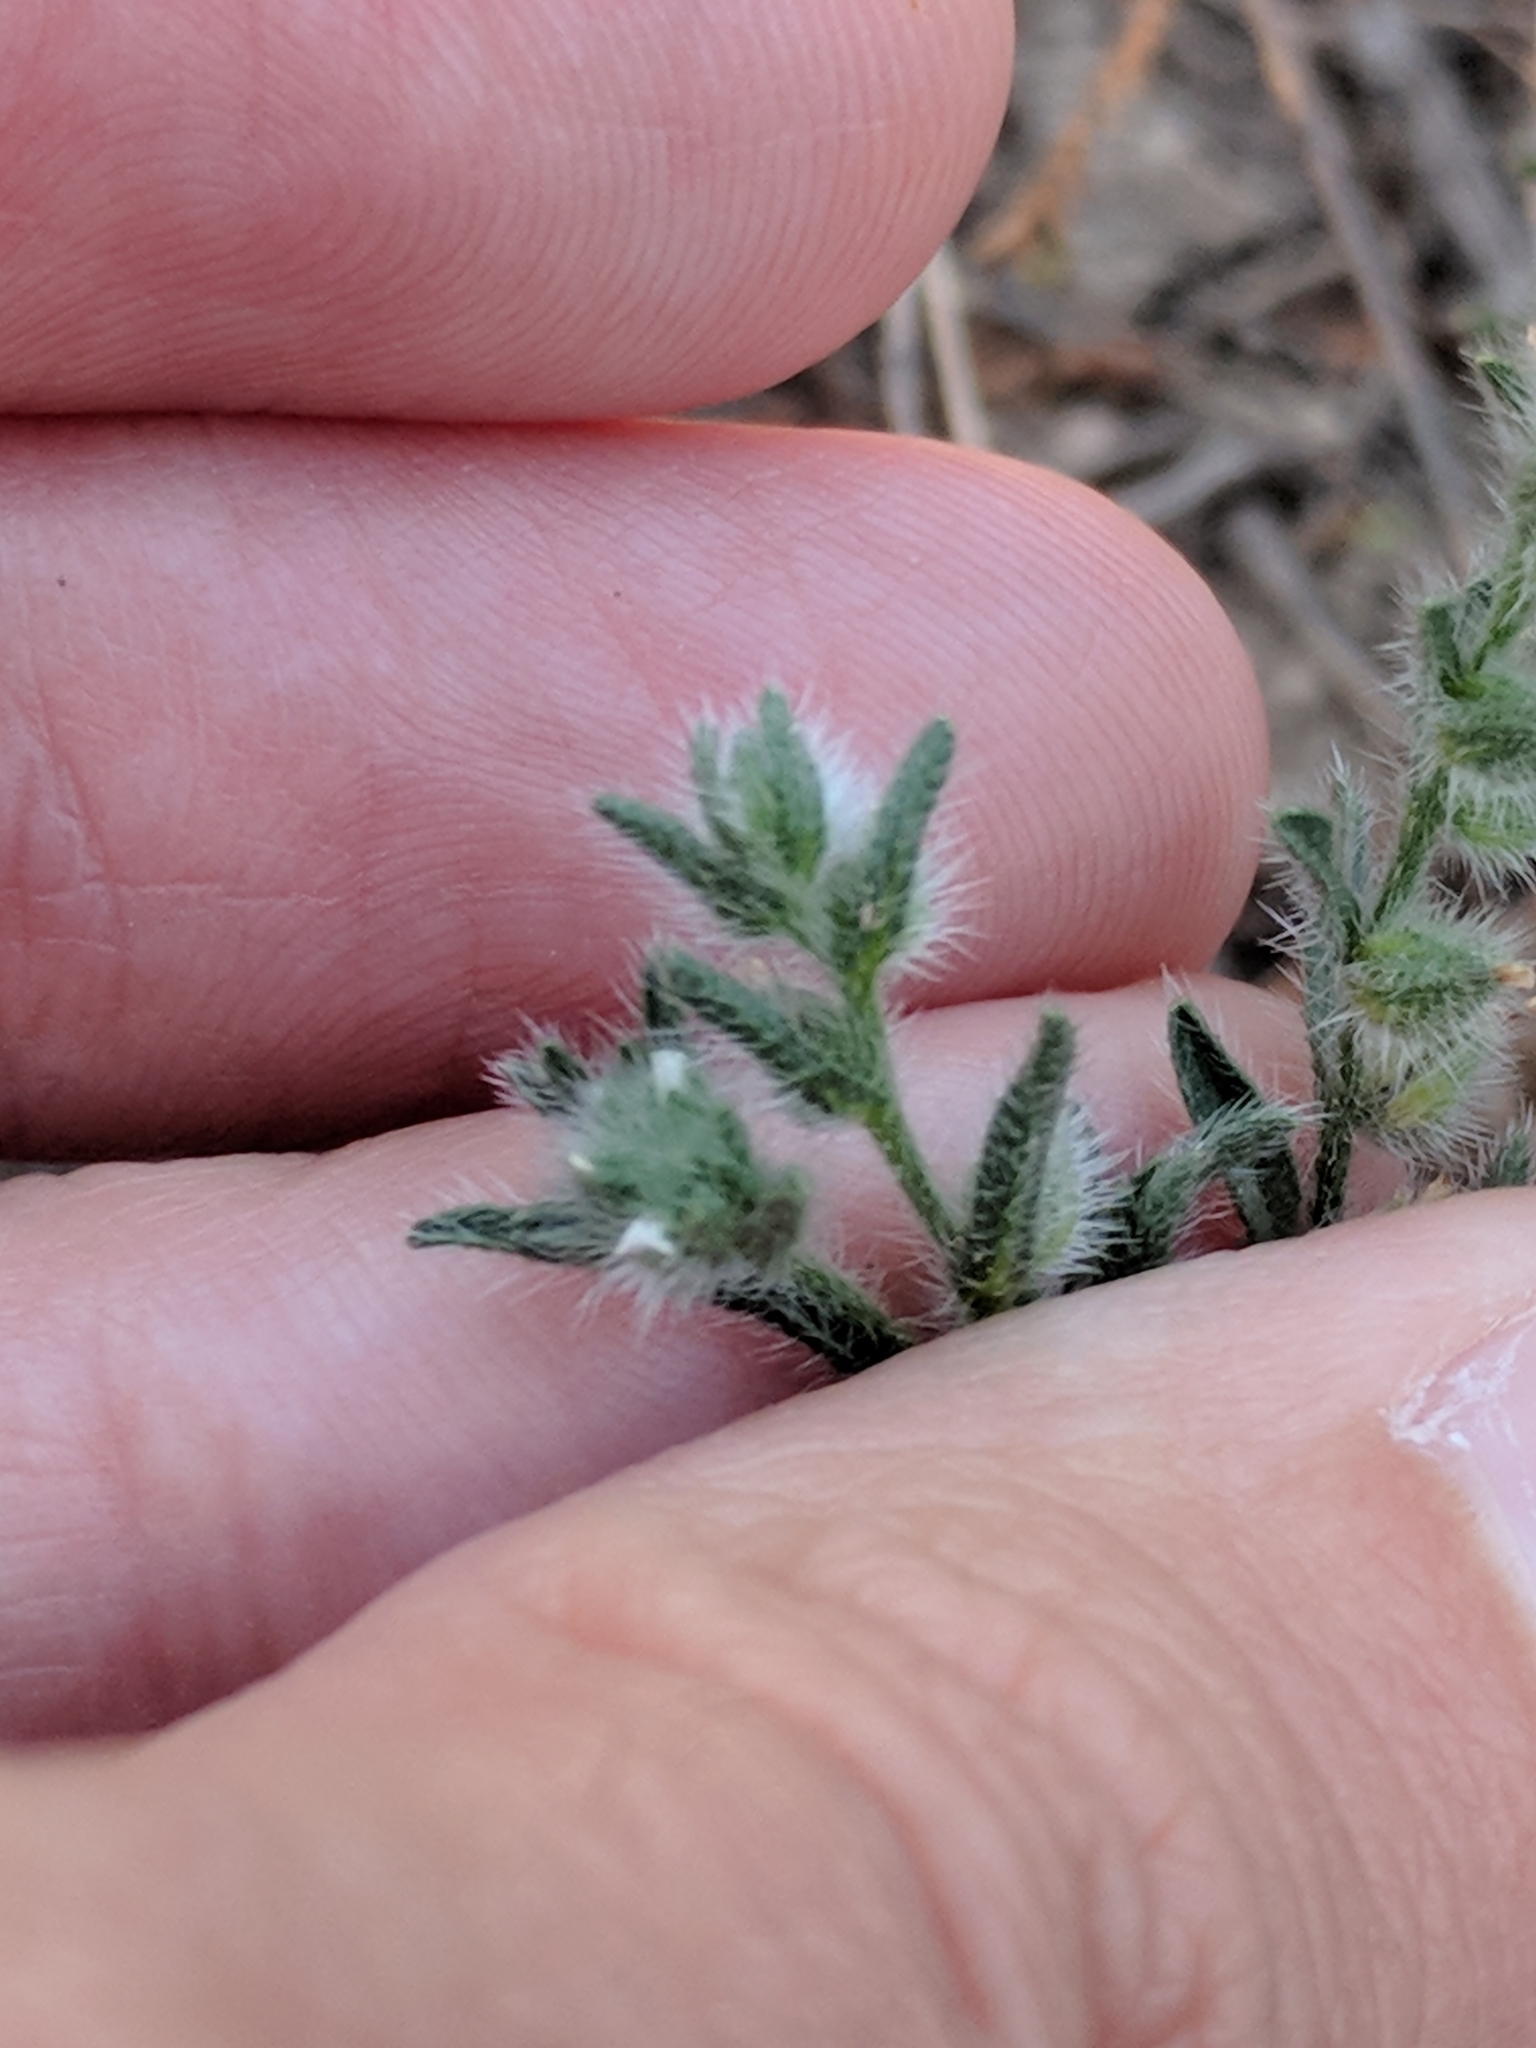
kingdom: Plantae
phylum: Tracheophyta
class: Magnoliopsida
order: Boraginales
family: Boraginaceae
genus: Johnstonella
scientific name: Johnstonella mexicana
